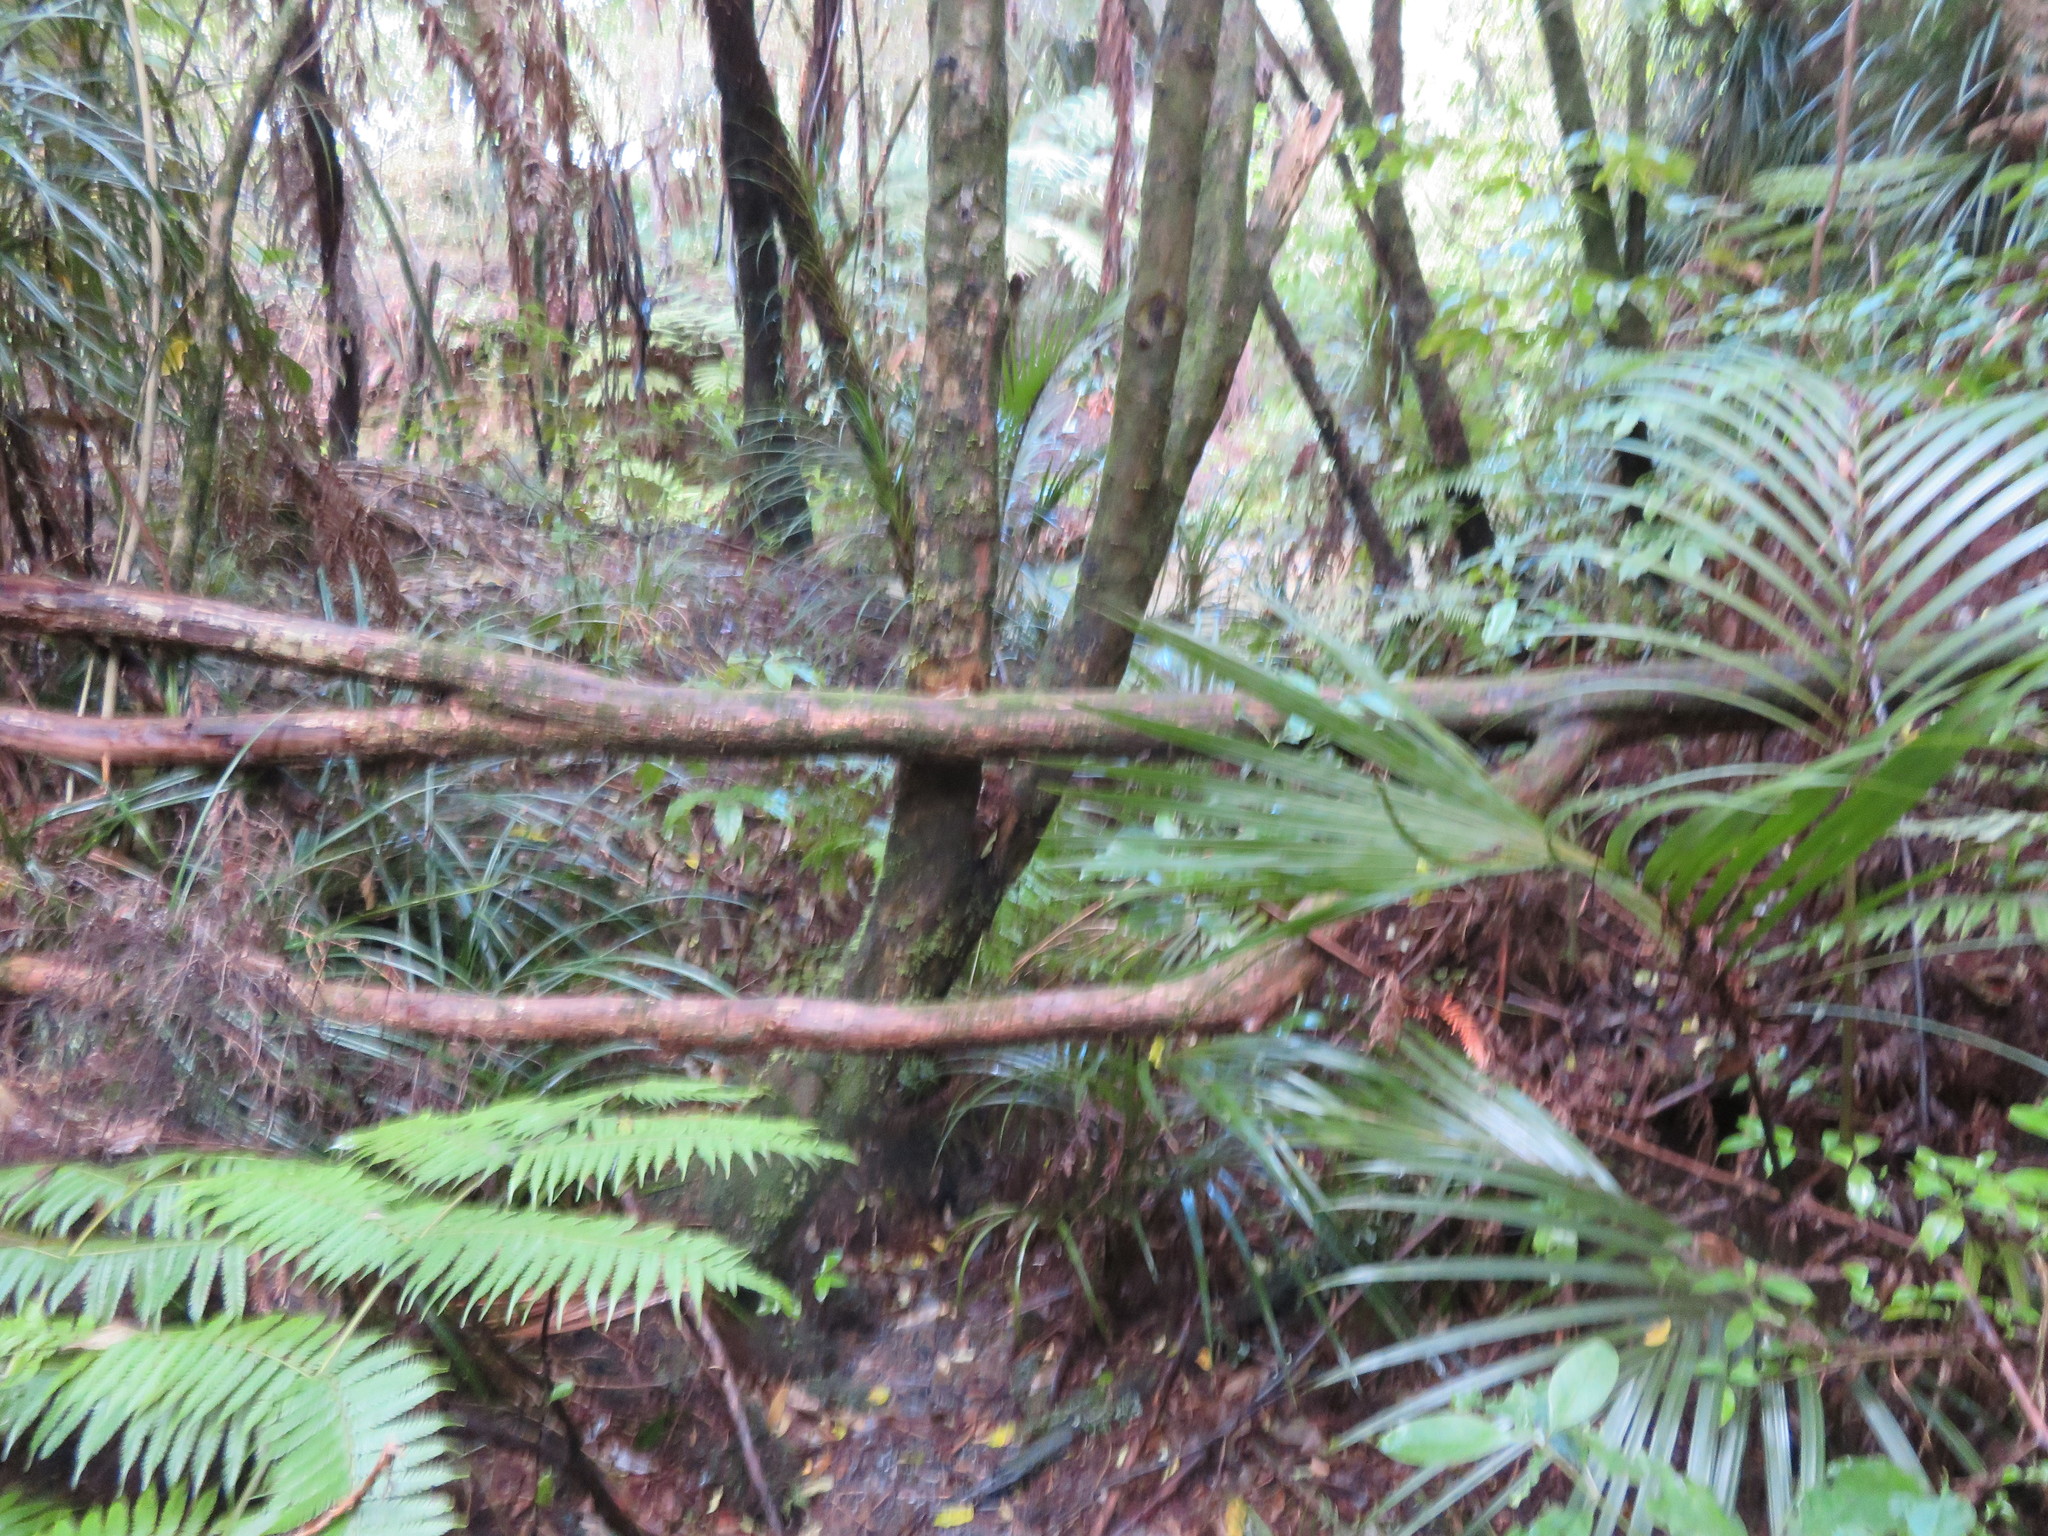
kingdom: Plantae
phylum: Tracheophyta
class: Liliopsida
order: Arecales
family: Arecaceae
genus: Rhopalostylis
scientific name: Rhopalostylis sapida
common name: Feather-duster palm
